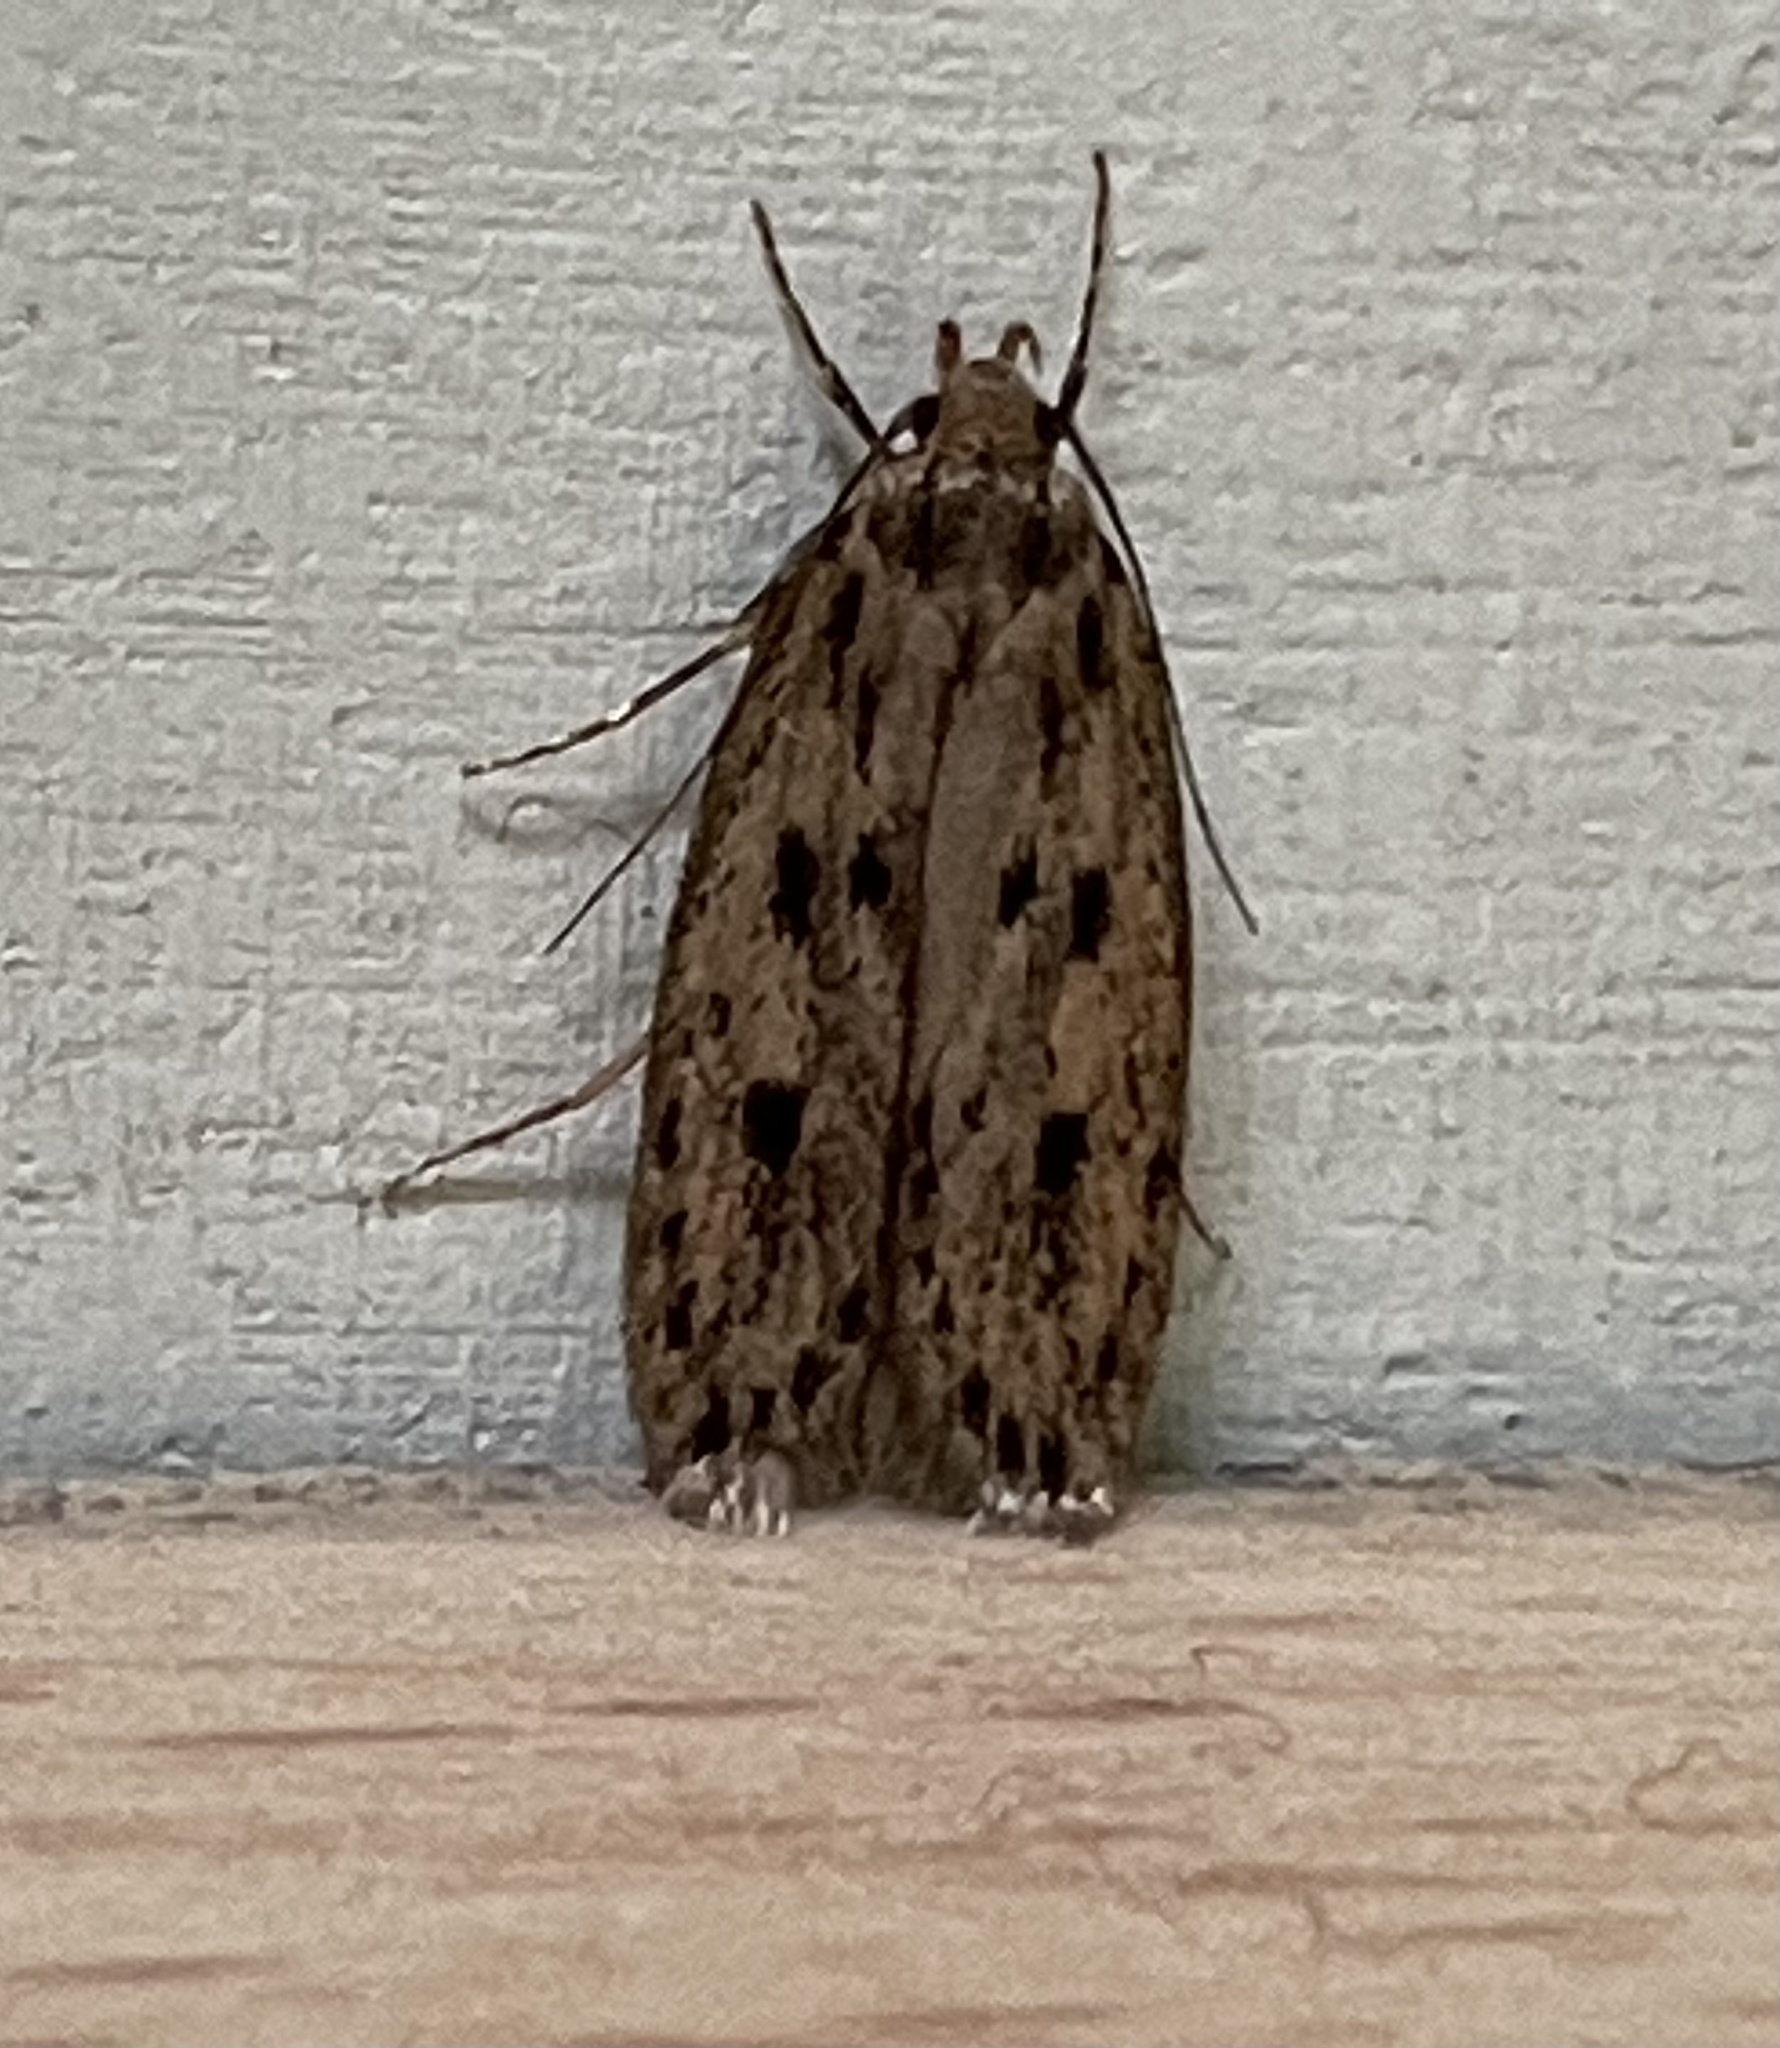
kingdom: Animalia
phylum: Arthropoda
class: Insecta
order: Lepidoptera
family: Oecophoridae
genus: Hofmannophila
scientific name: Hofmannophila pseudospretella
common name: Brown house moth
